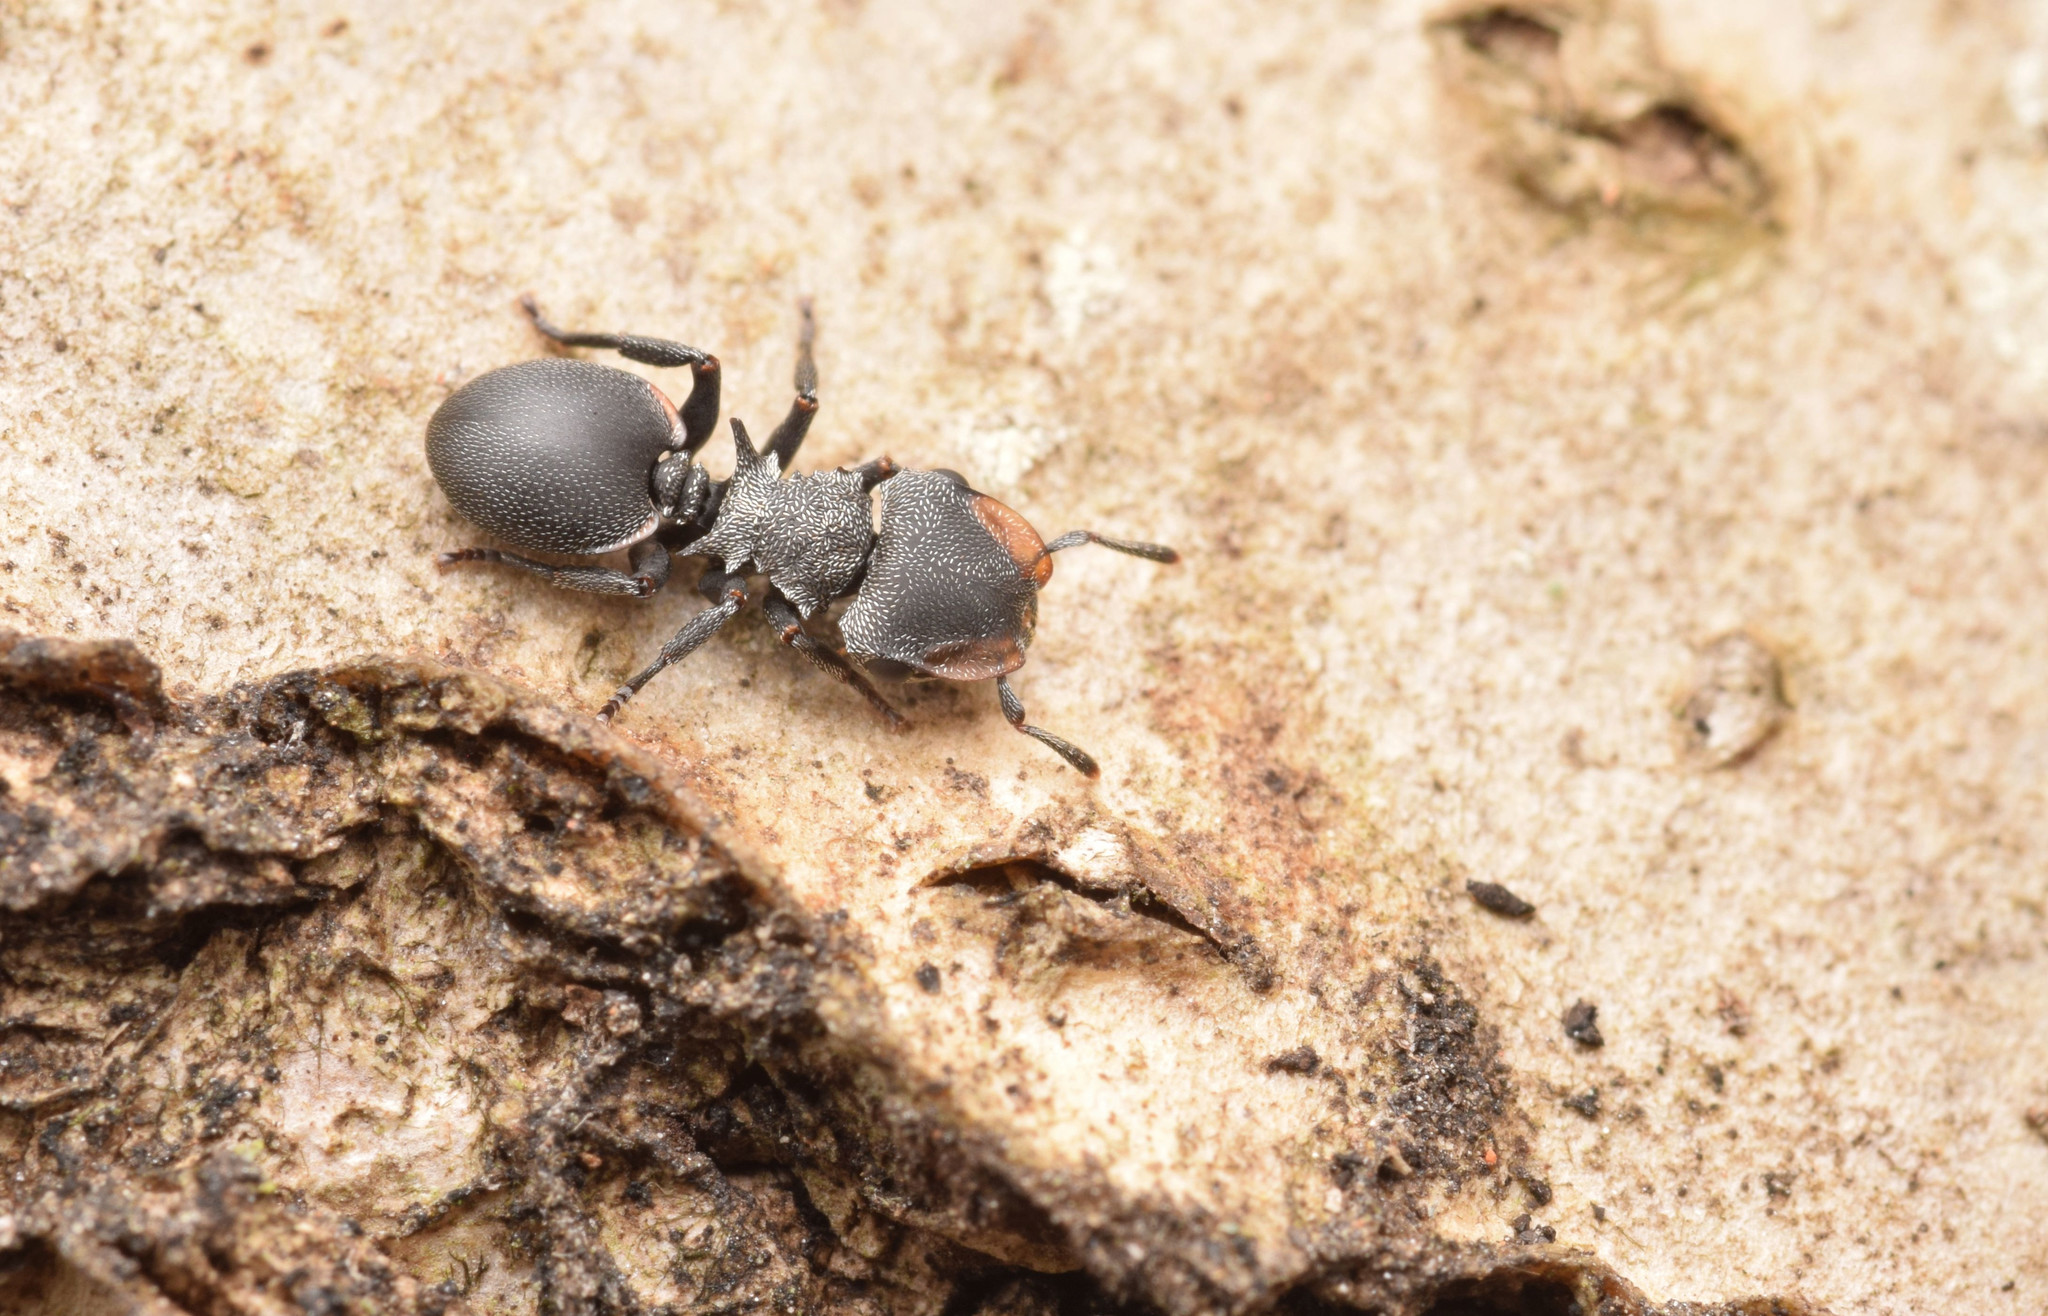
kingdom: Animalia
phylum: Arthropoda
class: Insecta
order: Hymenoptera
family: Formicidae
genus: Cephalotes
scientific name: Cephalotes pusillus
